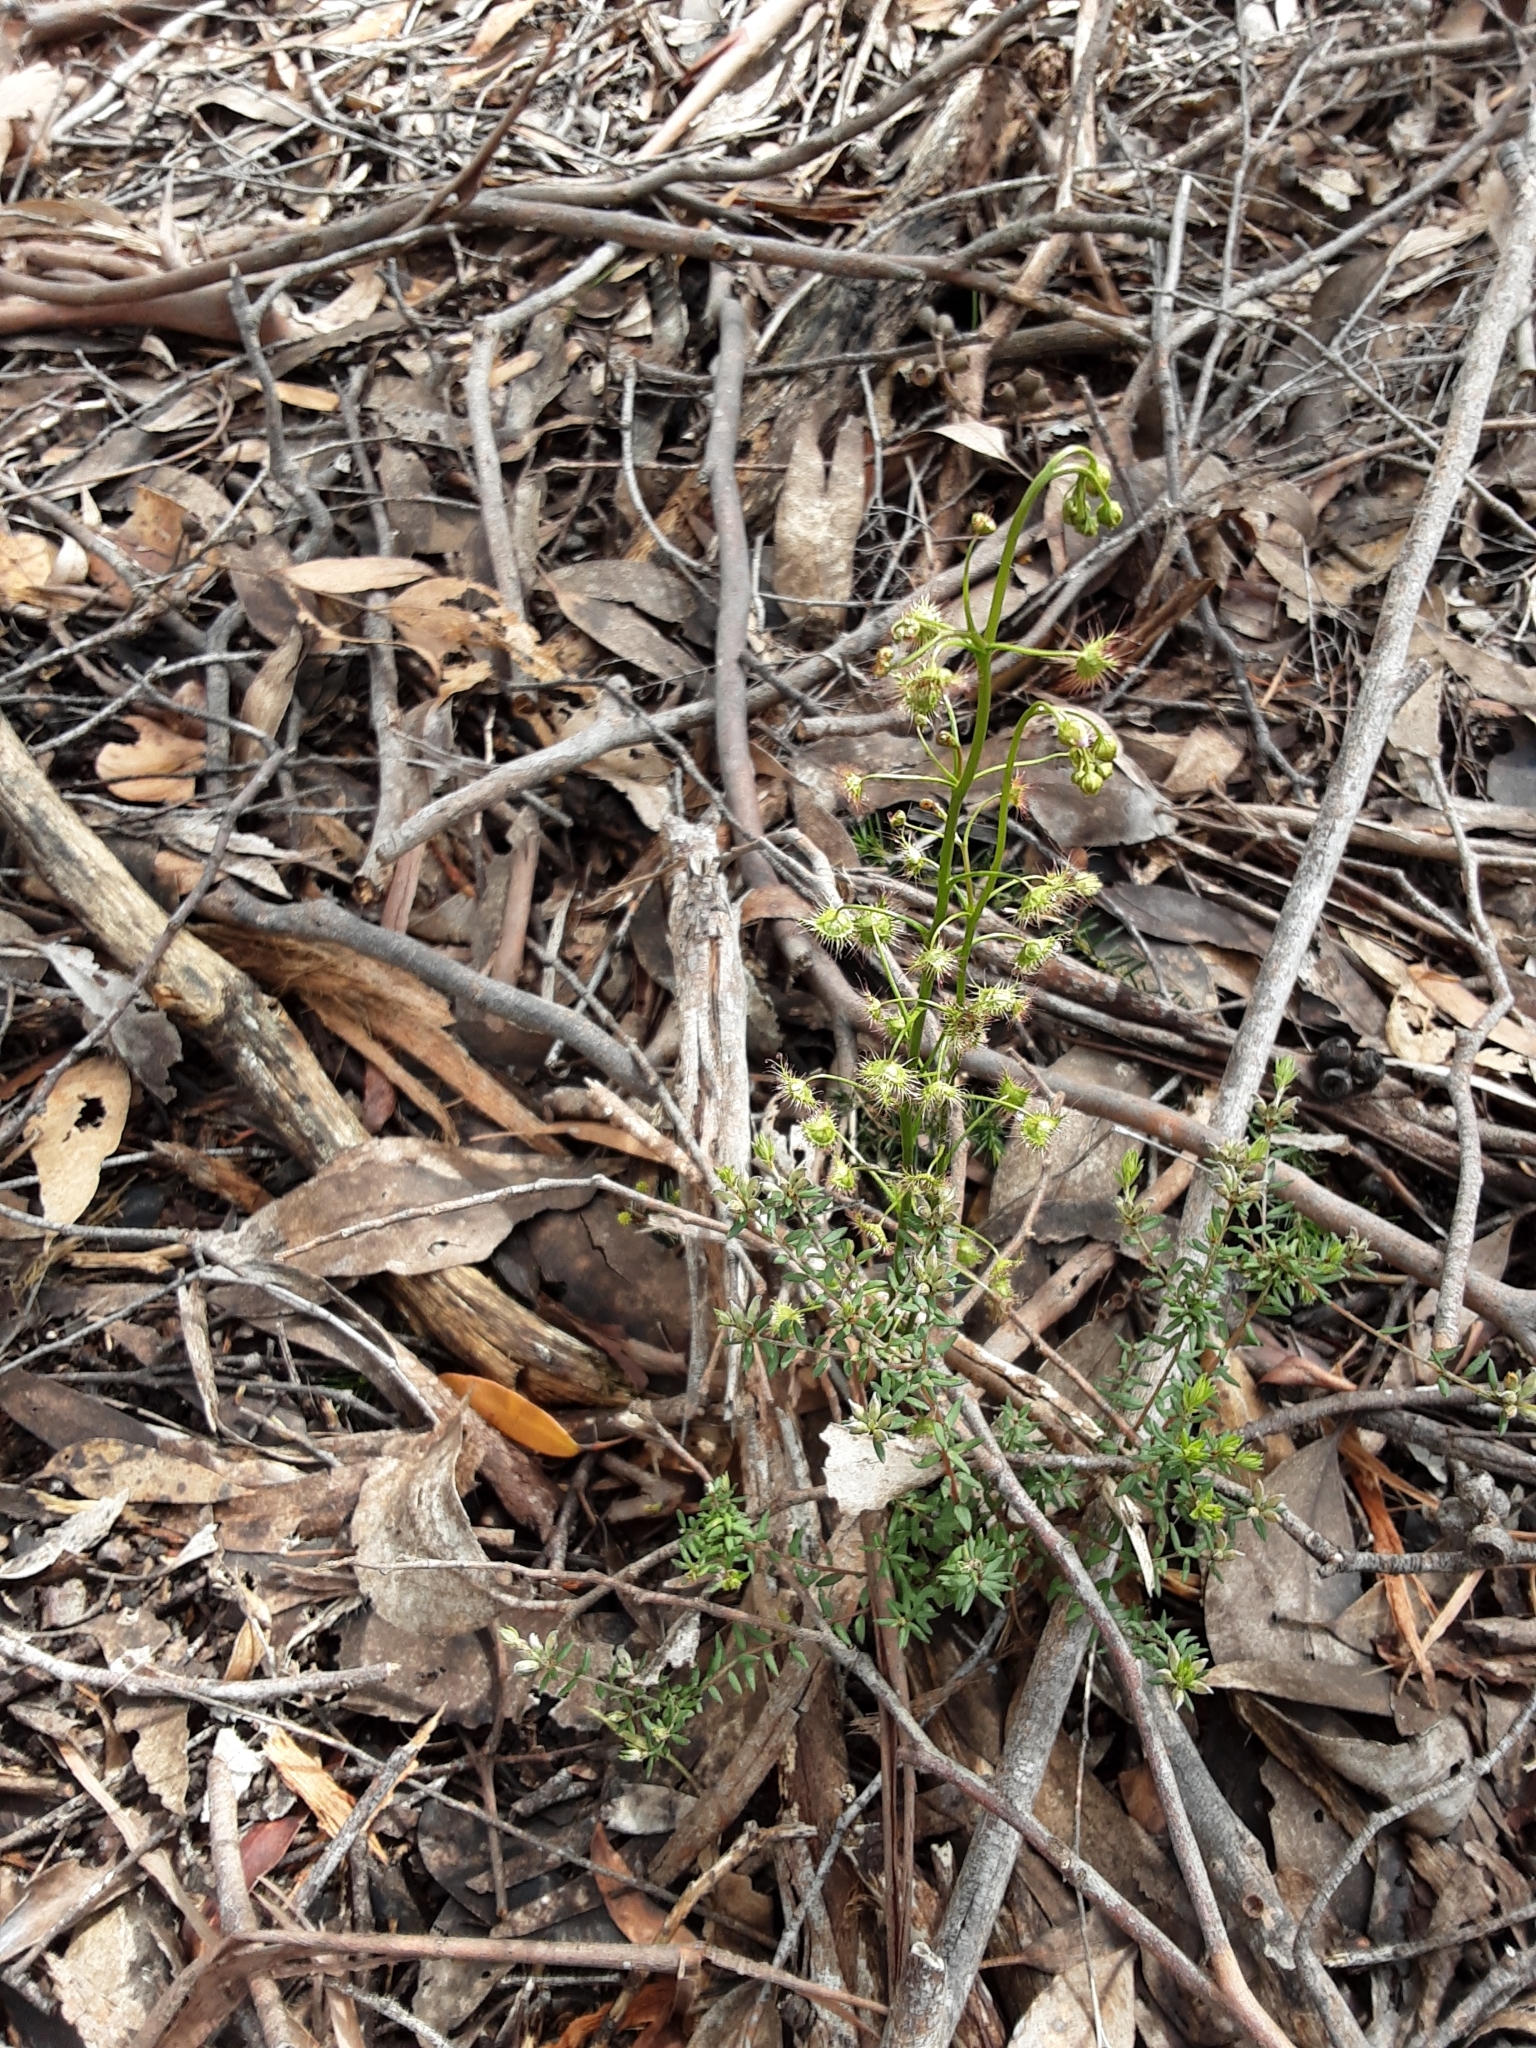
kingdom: Plantae
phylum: Tracheophyta
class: Magnoliopsida
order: Caryophyllales
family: Droseraceae
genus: Drosera
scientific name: Drosera peltata
